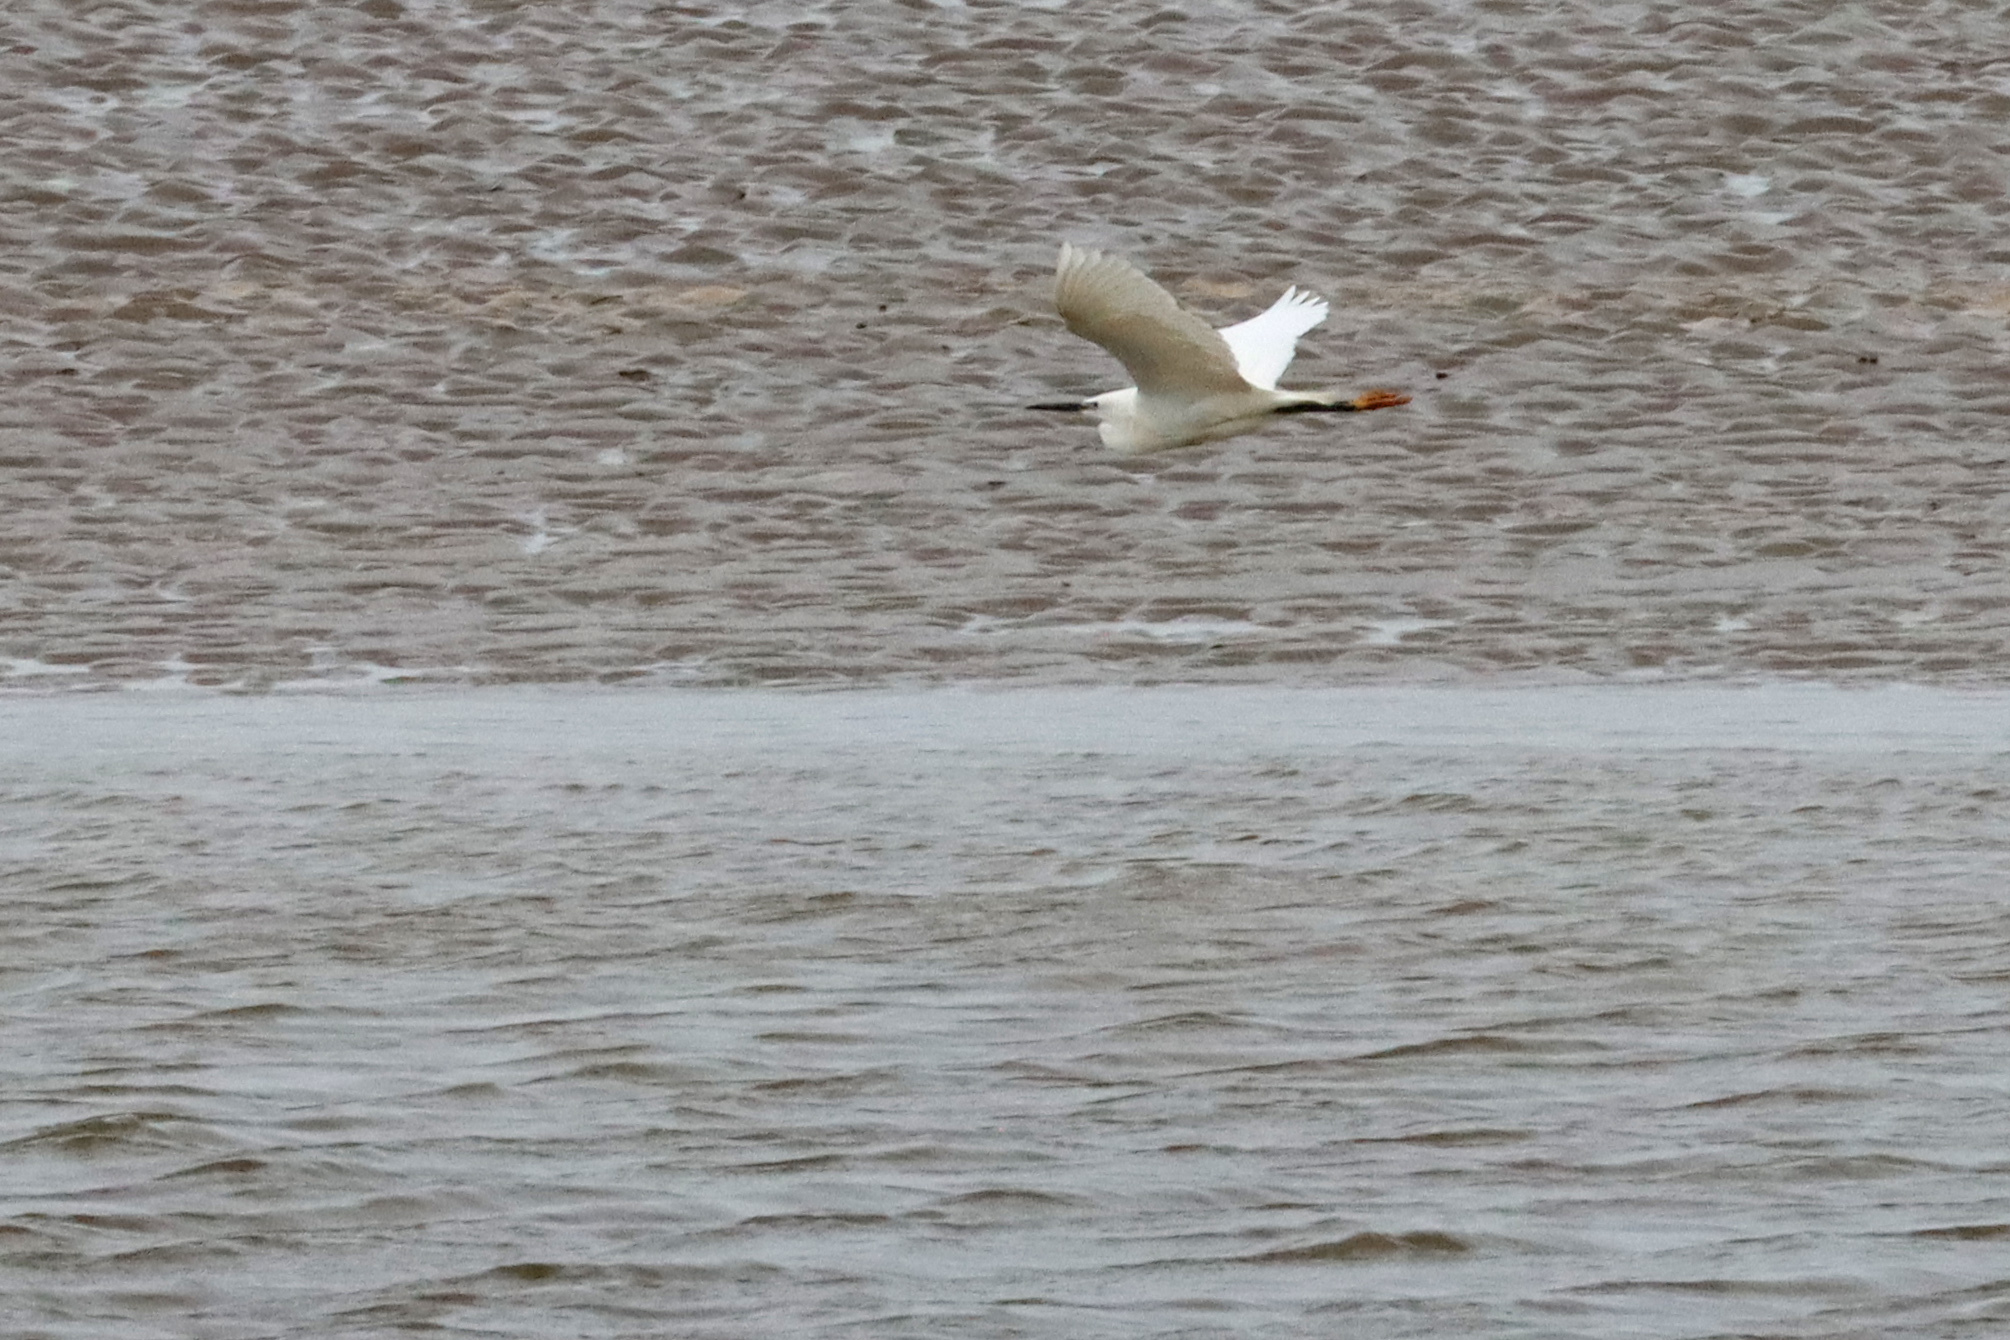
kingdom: Animalia
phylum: Chordata
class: Aves
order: Pelecaniformes
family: Ardeidae
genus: Egretta
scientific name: Egretta garzetta
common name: Little egret
